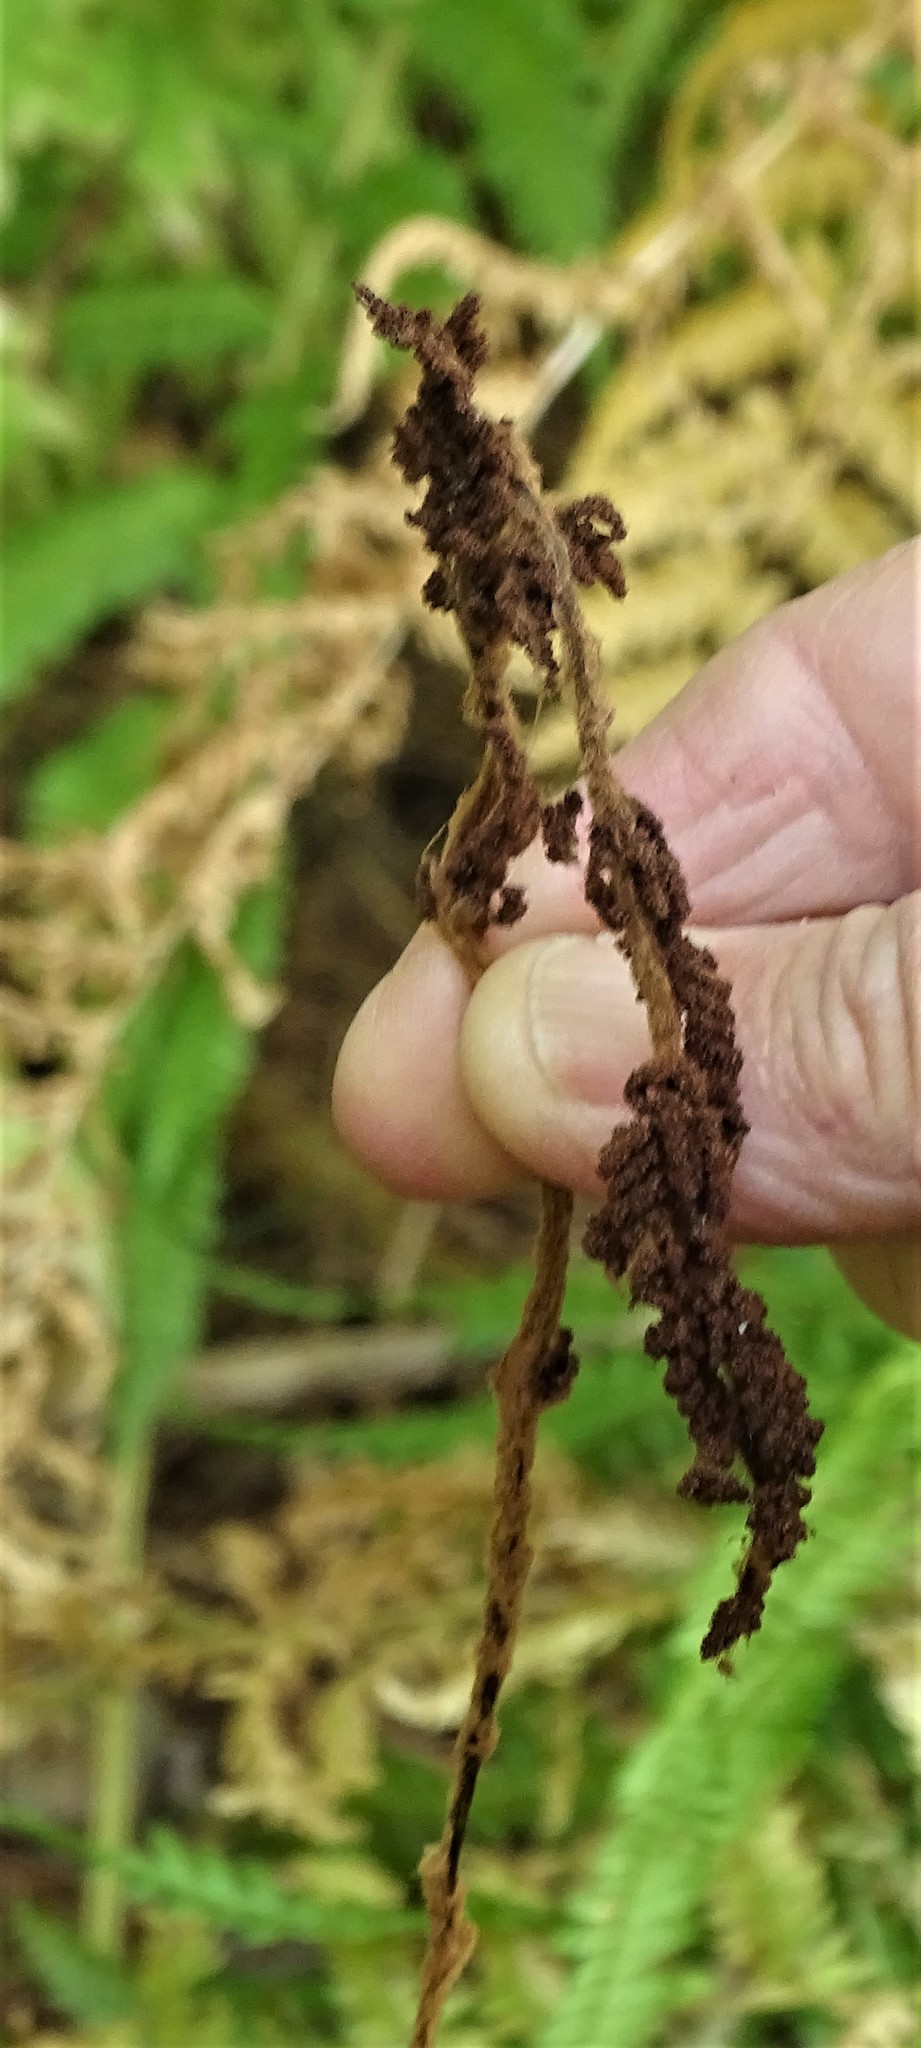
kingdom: Plantae
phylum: Tracheophyta
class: Polypodiopsida
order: Osmundales
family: Osmundaceae
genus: Osmundastrum
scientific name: Osmundastrum cinnamomeum
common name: Cinnamon fern
